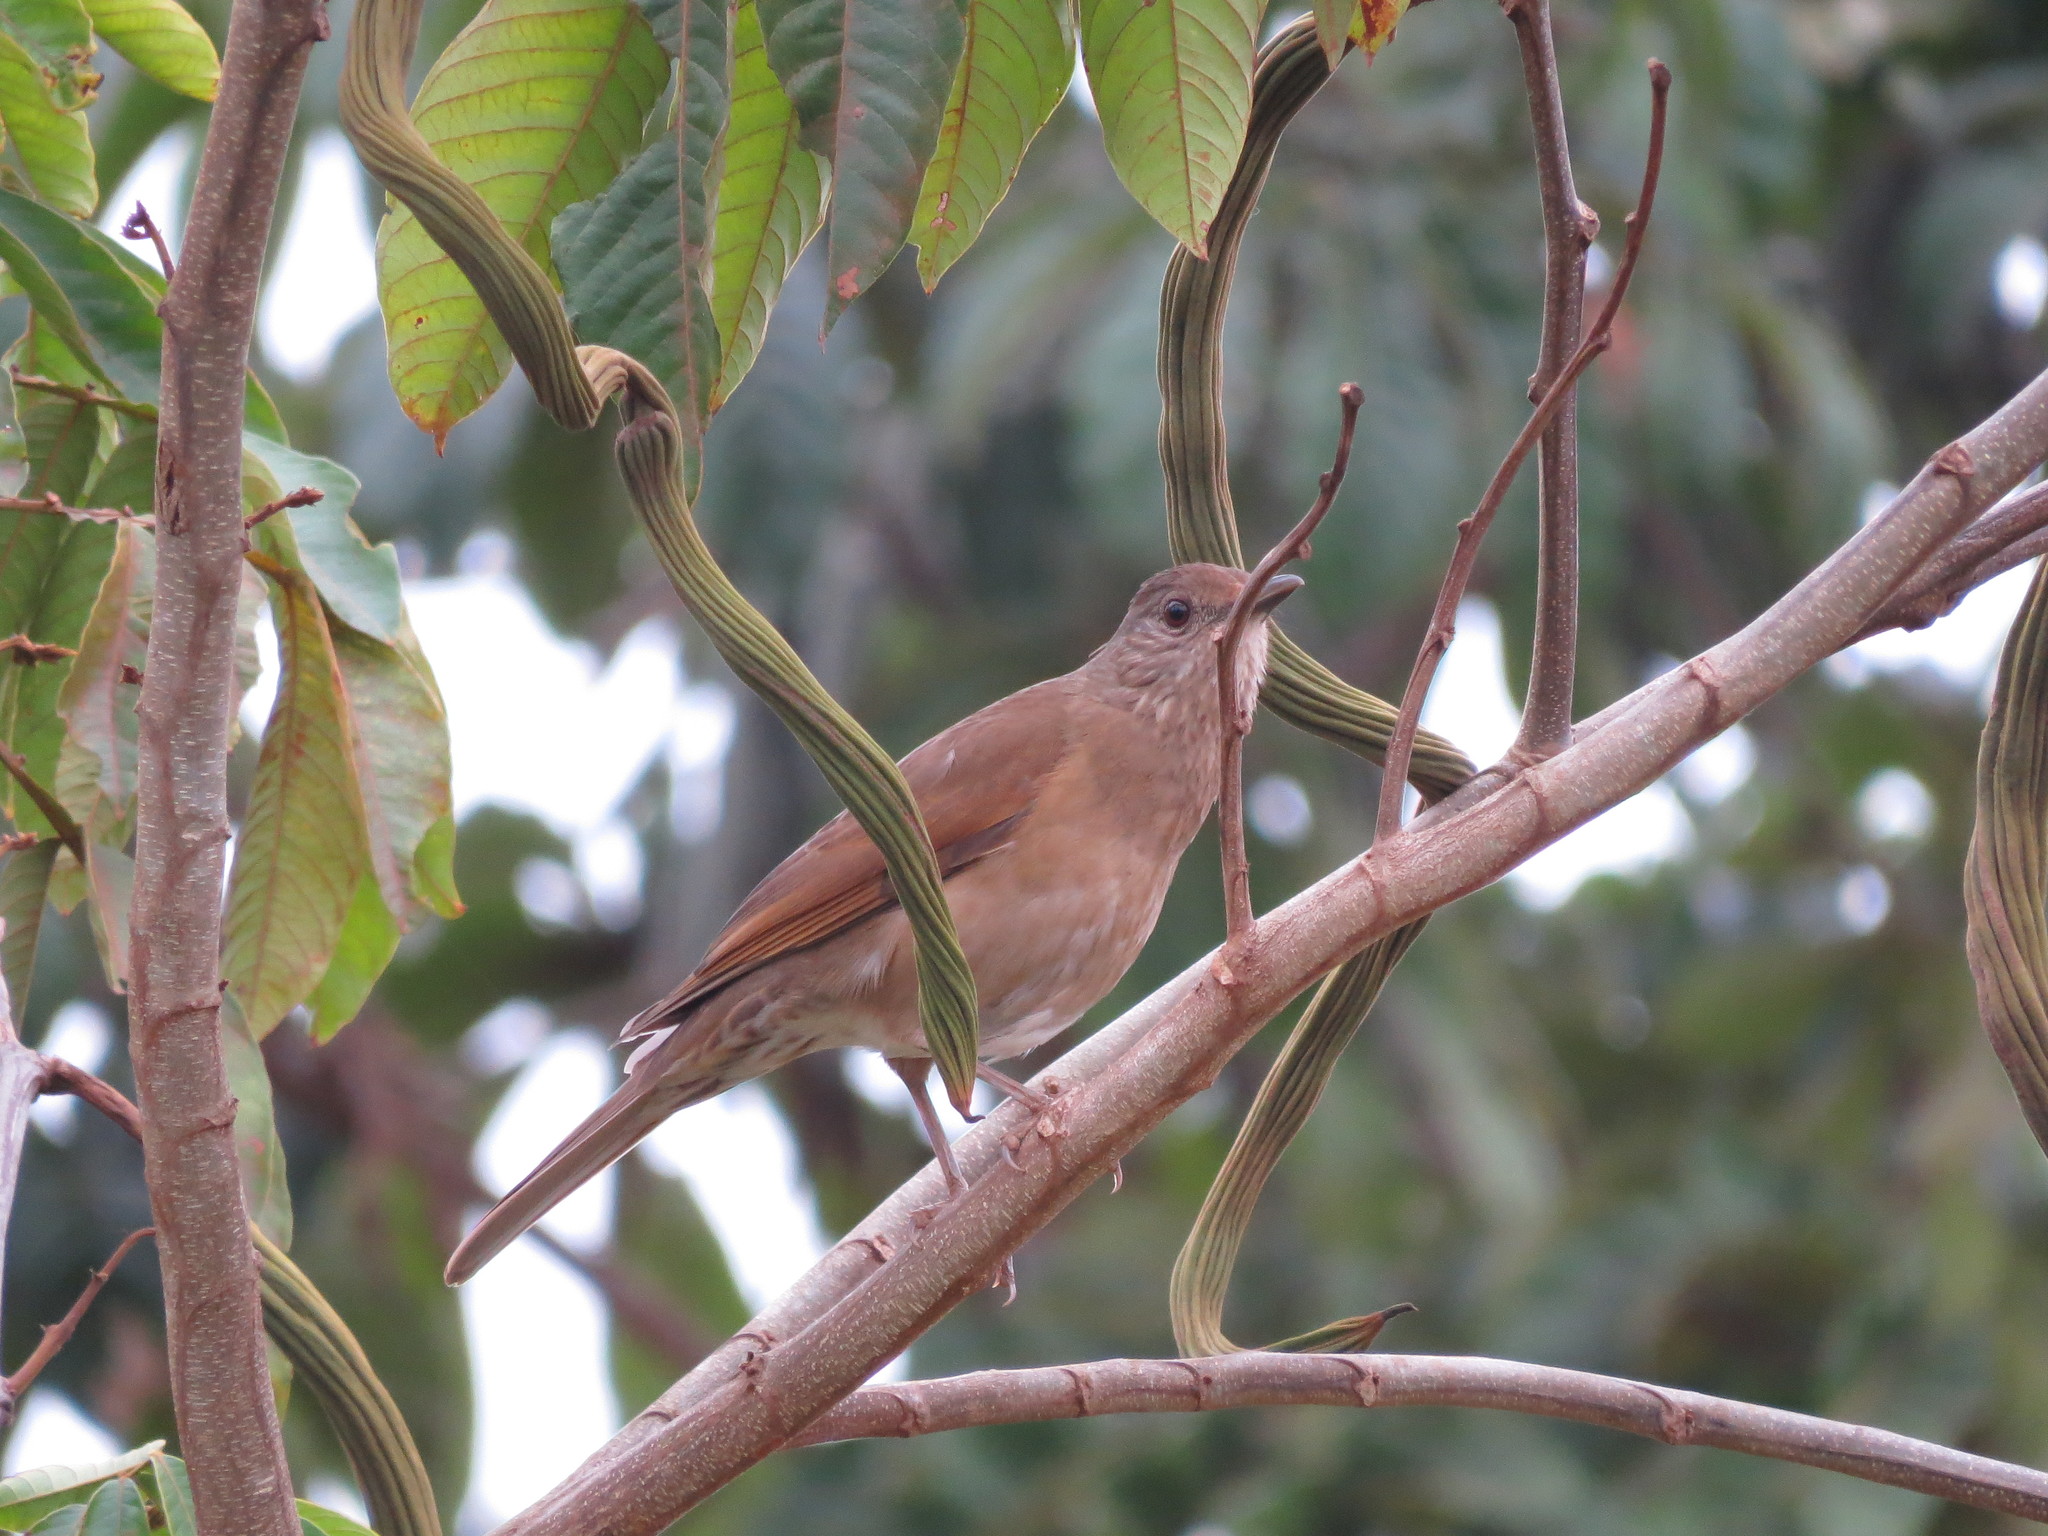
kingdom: Animalia
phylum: Chordata
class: Aves
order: Passeriformes
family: Turdidae
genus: Turdus
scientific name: Turdus leucomelas
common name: Pale-breasted thrush
